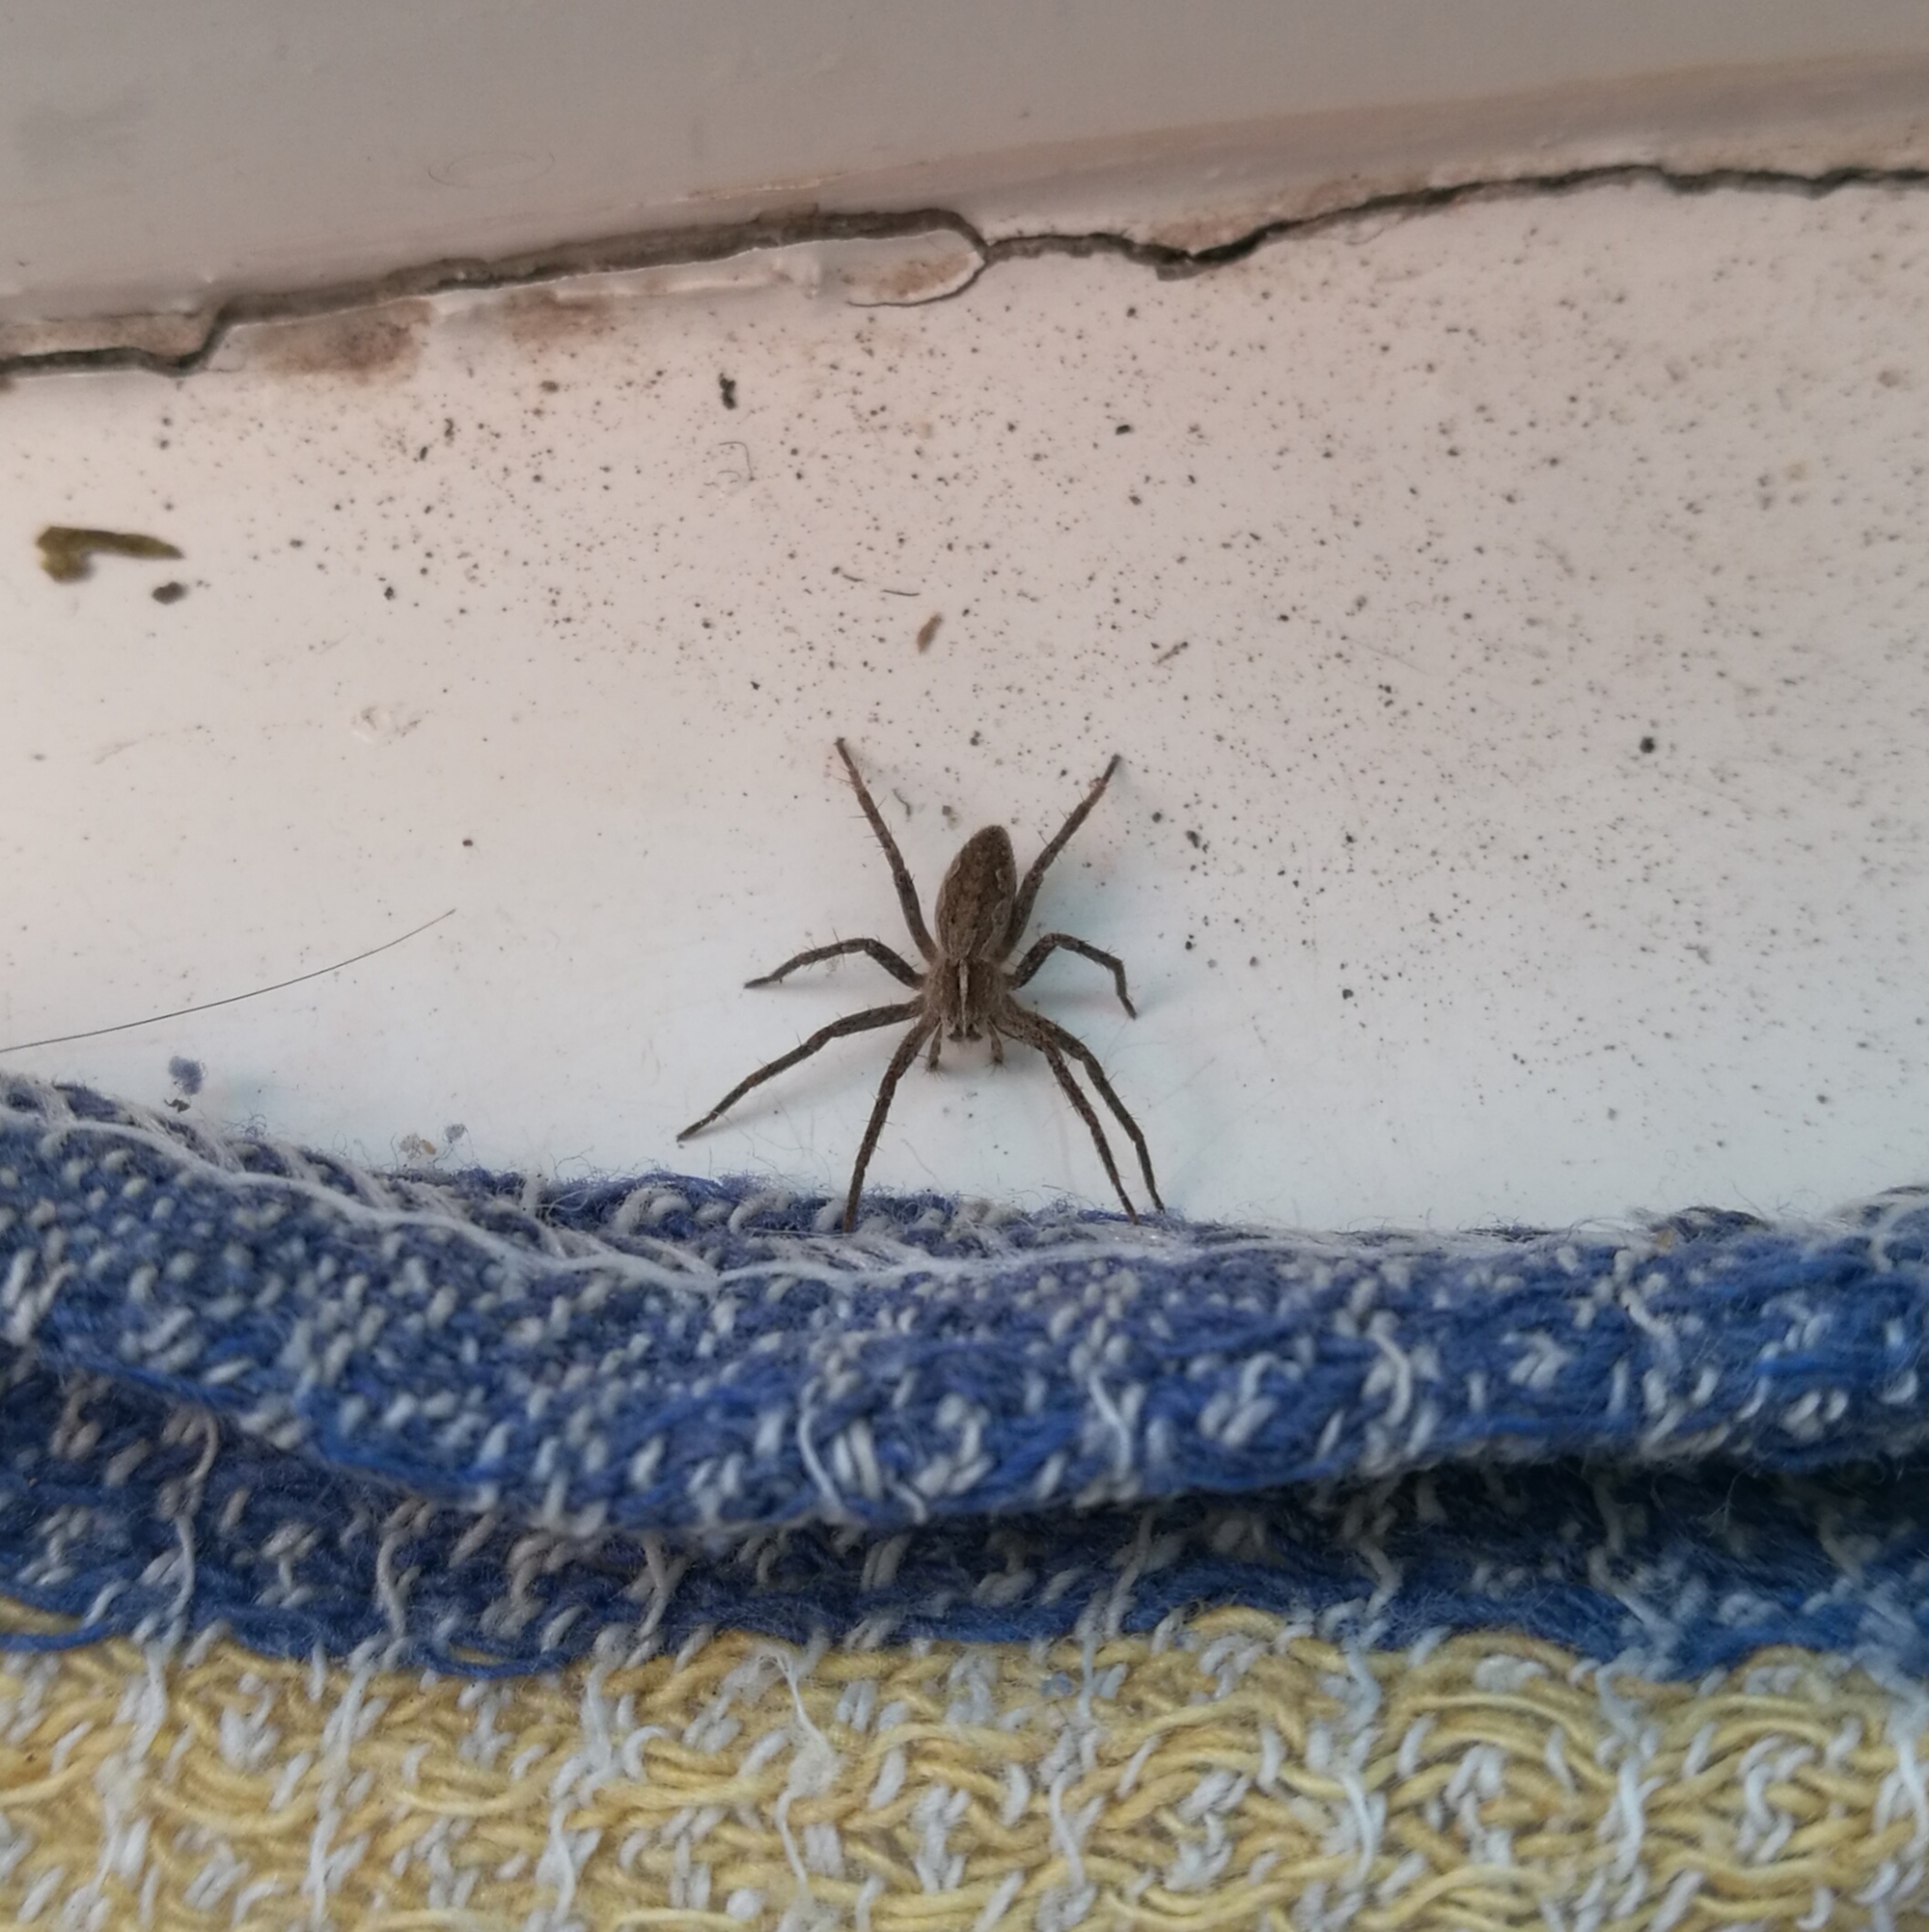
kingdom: Animalia
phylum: Arthropoda
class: Arachnida
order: Araneae
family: Pisauridae
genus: Pisaura
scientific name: Pisaura
